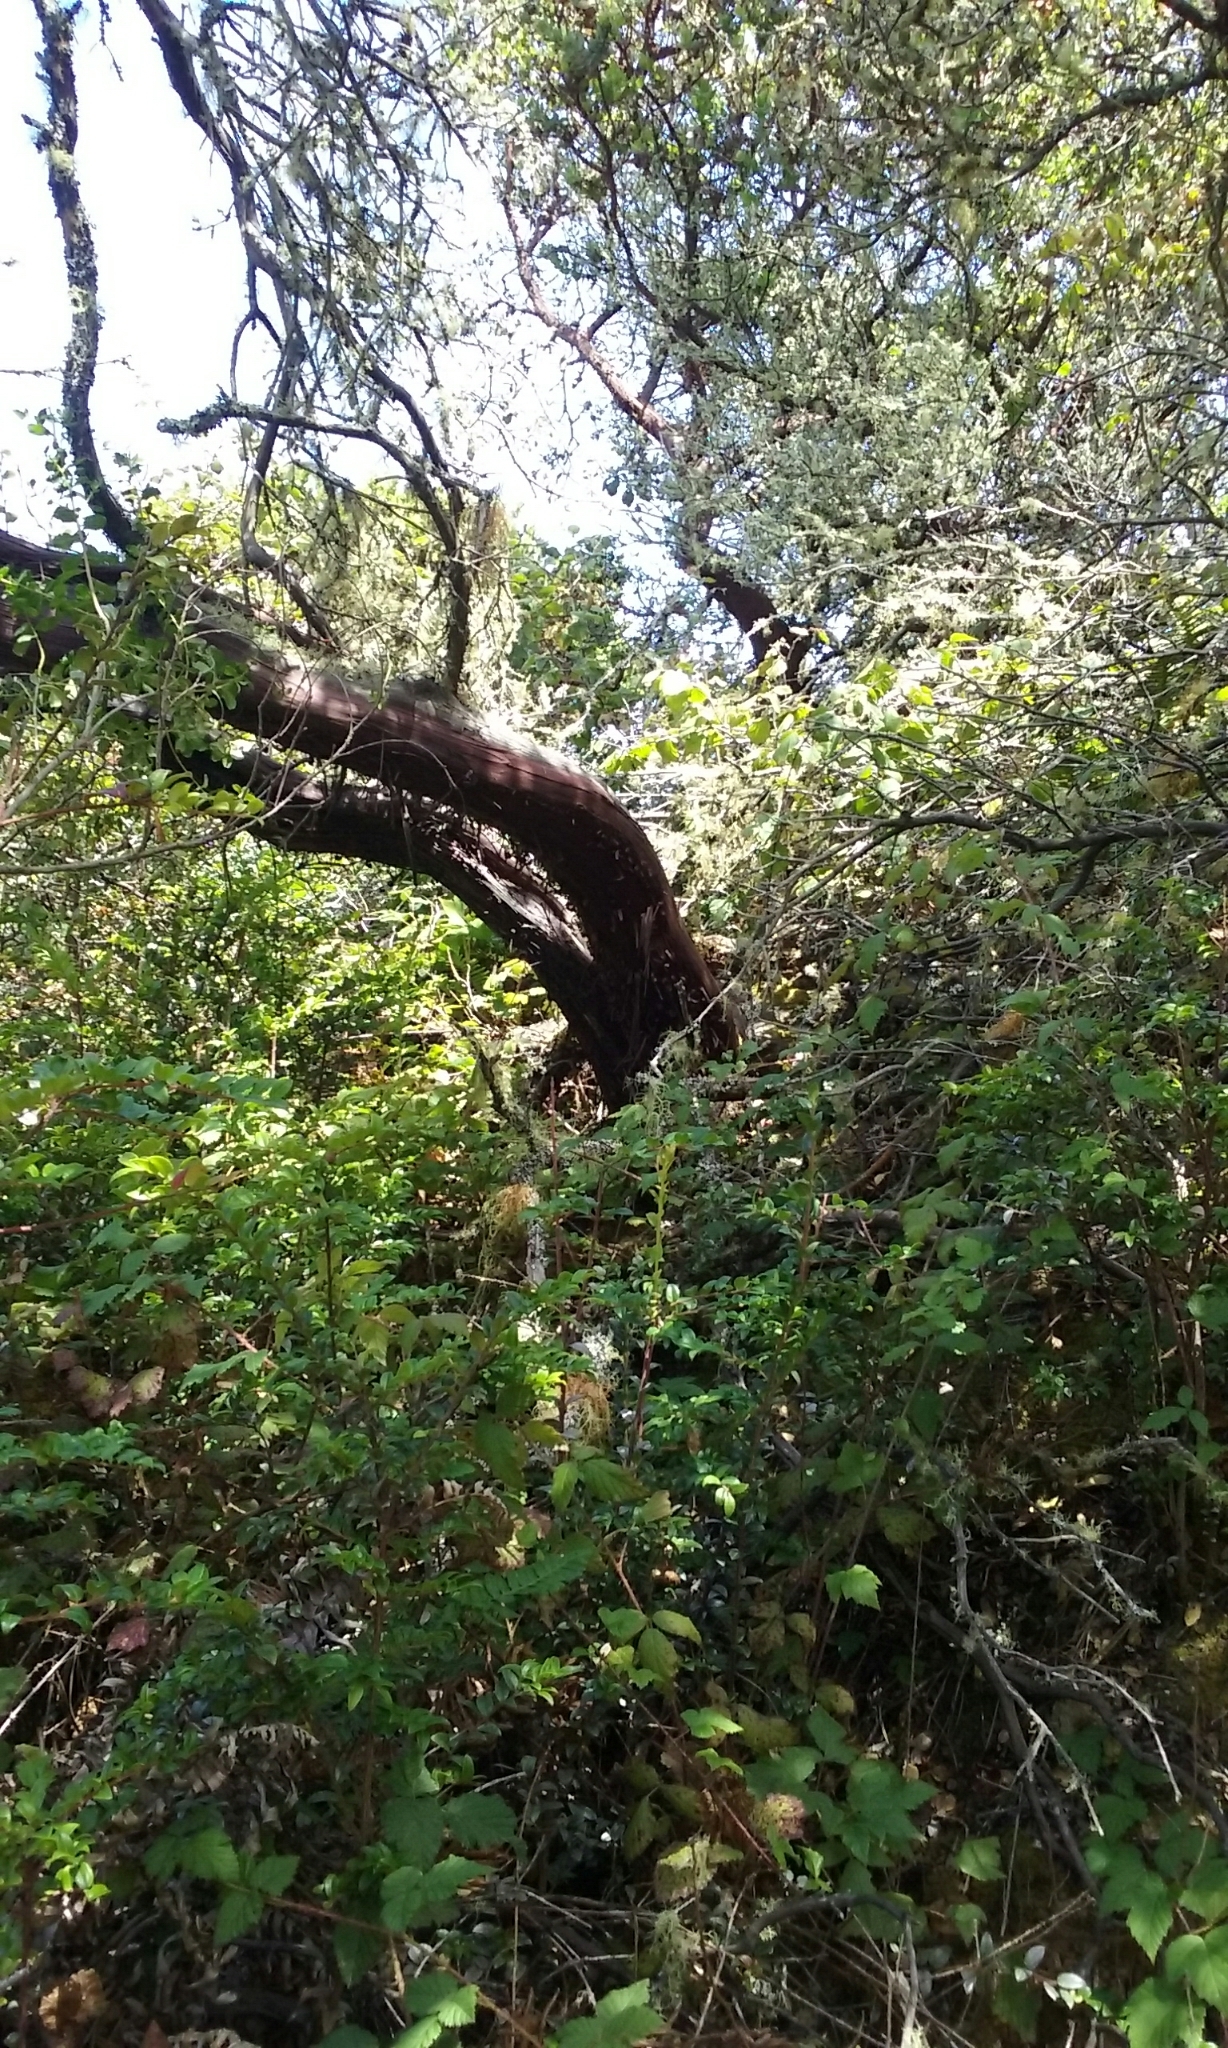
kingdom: Plantae
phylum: Tracheophyta
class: Magnoliopsida
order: Ericales
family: Ericaceae
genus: Arctostaphylos
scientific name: Arctostaphylos montaraensis
